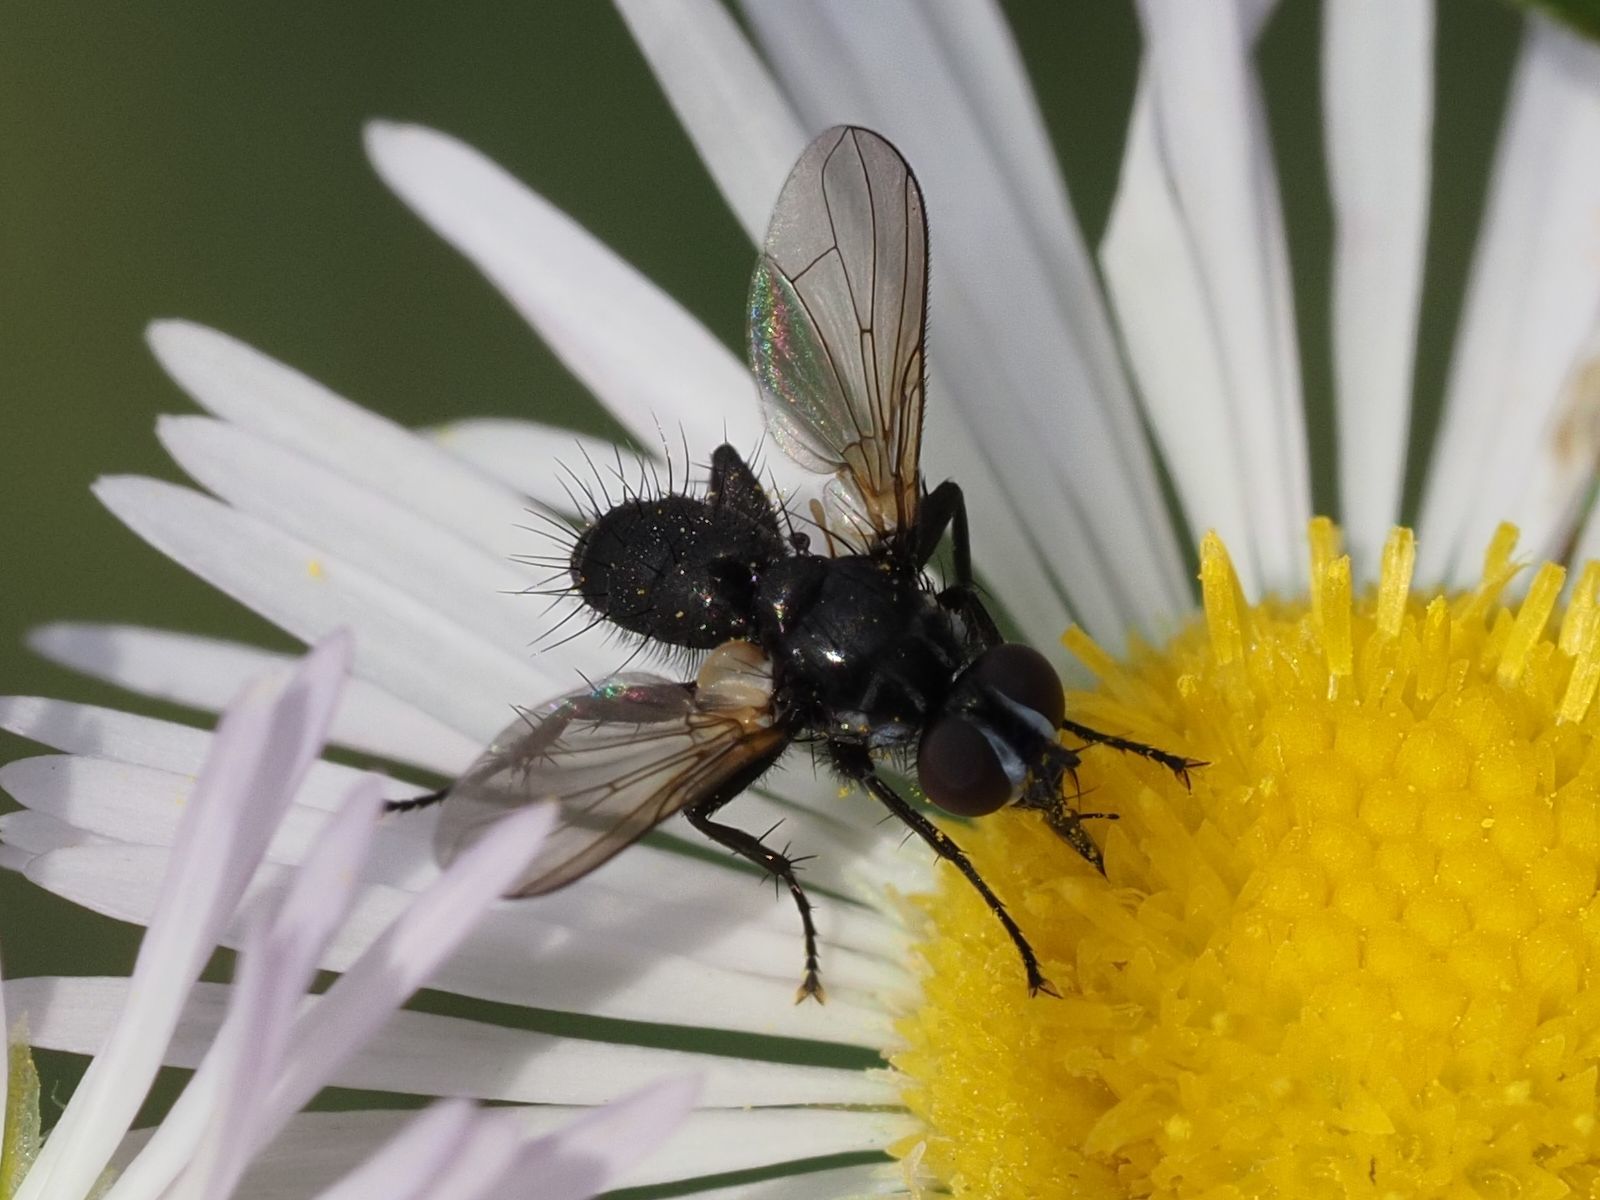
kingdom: Animalia
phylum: Arthropoda
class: Insecta
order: Diptera
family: Tachinidae
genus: Phania
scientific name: Phania funesta
